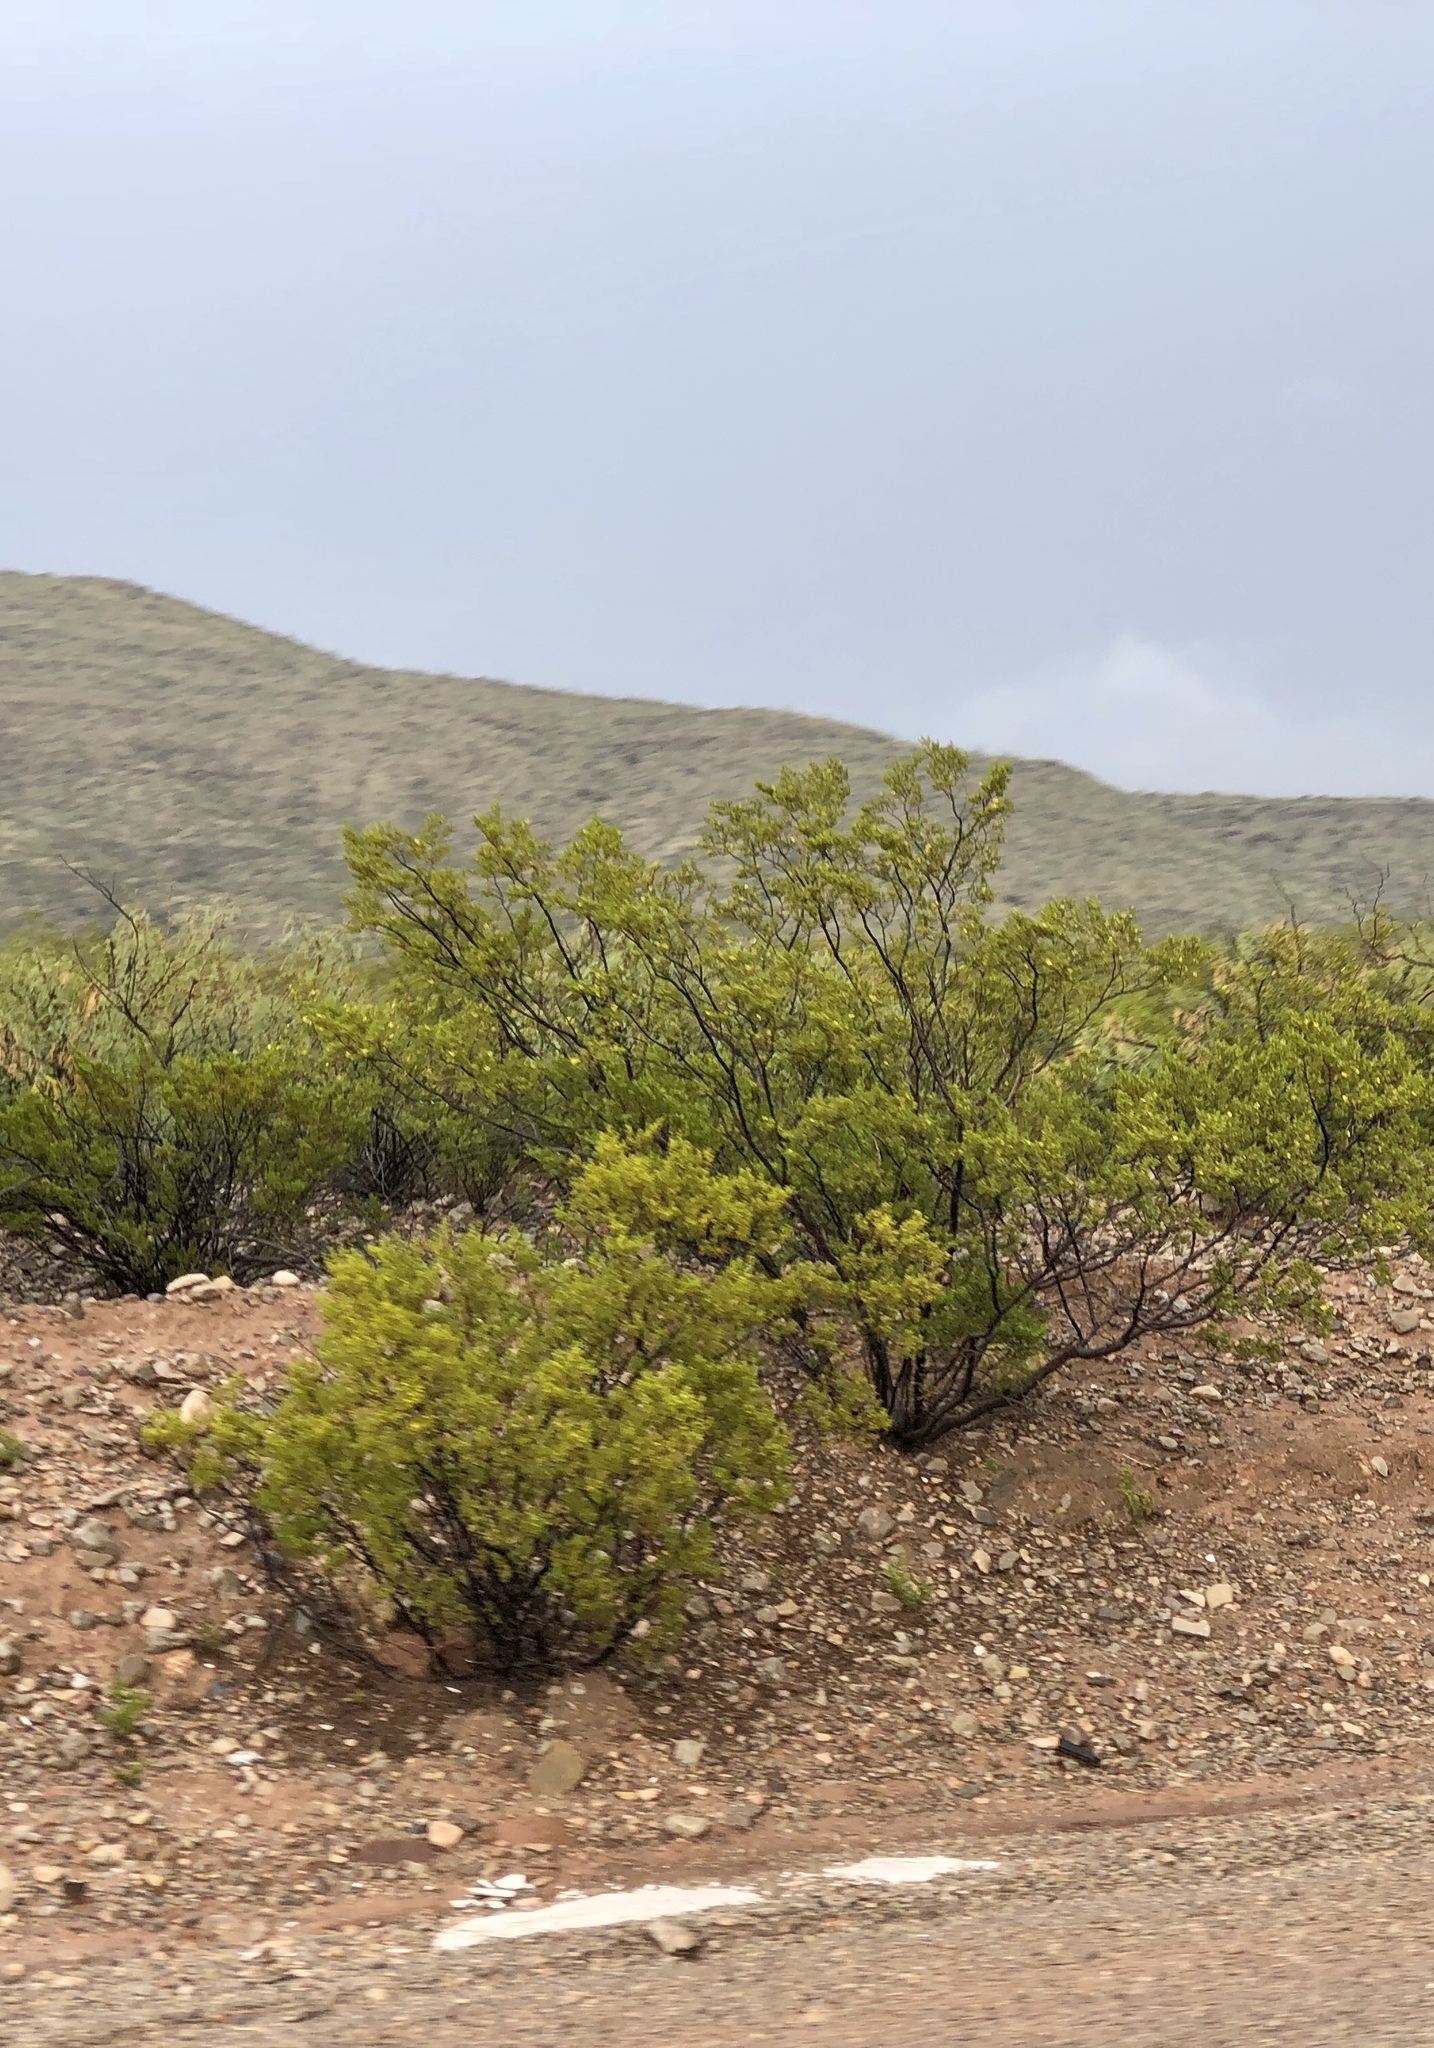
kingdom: Plantae
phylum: Tracheophyta
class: Magnoliopsida
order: Zygophyllales
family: Zygophyllaceae
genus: Larrea
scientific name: Larrea tridentata
